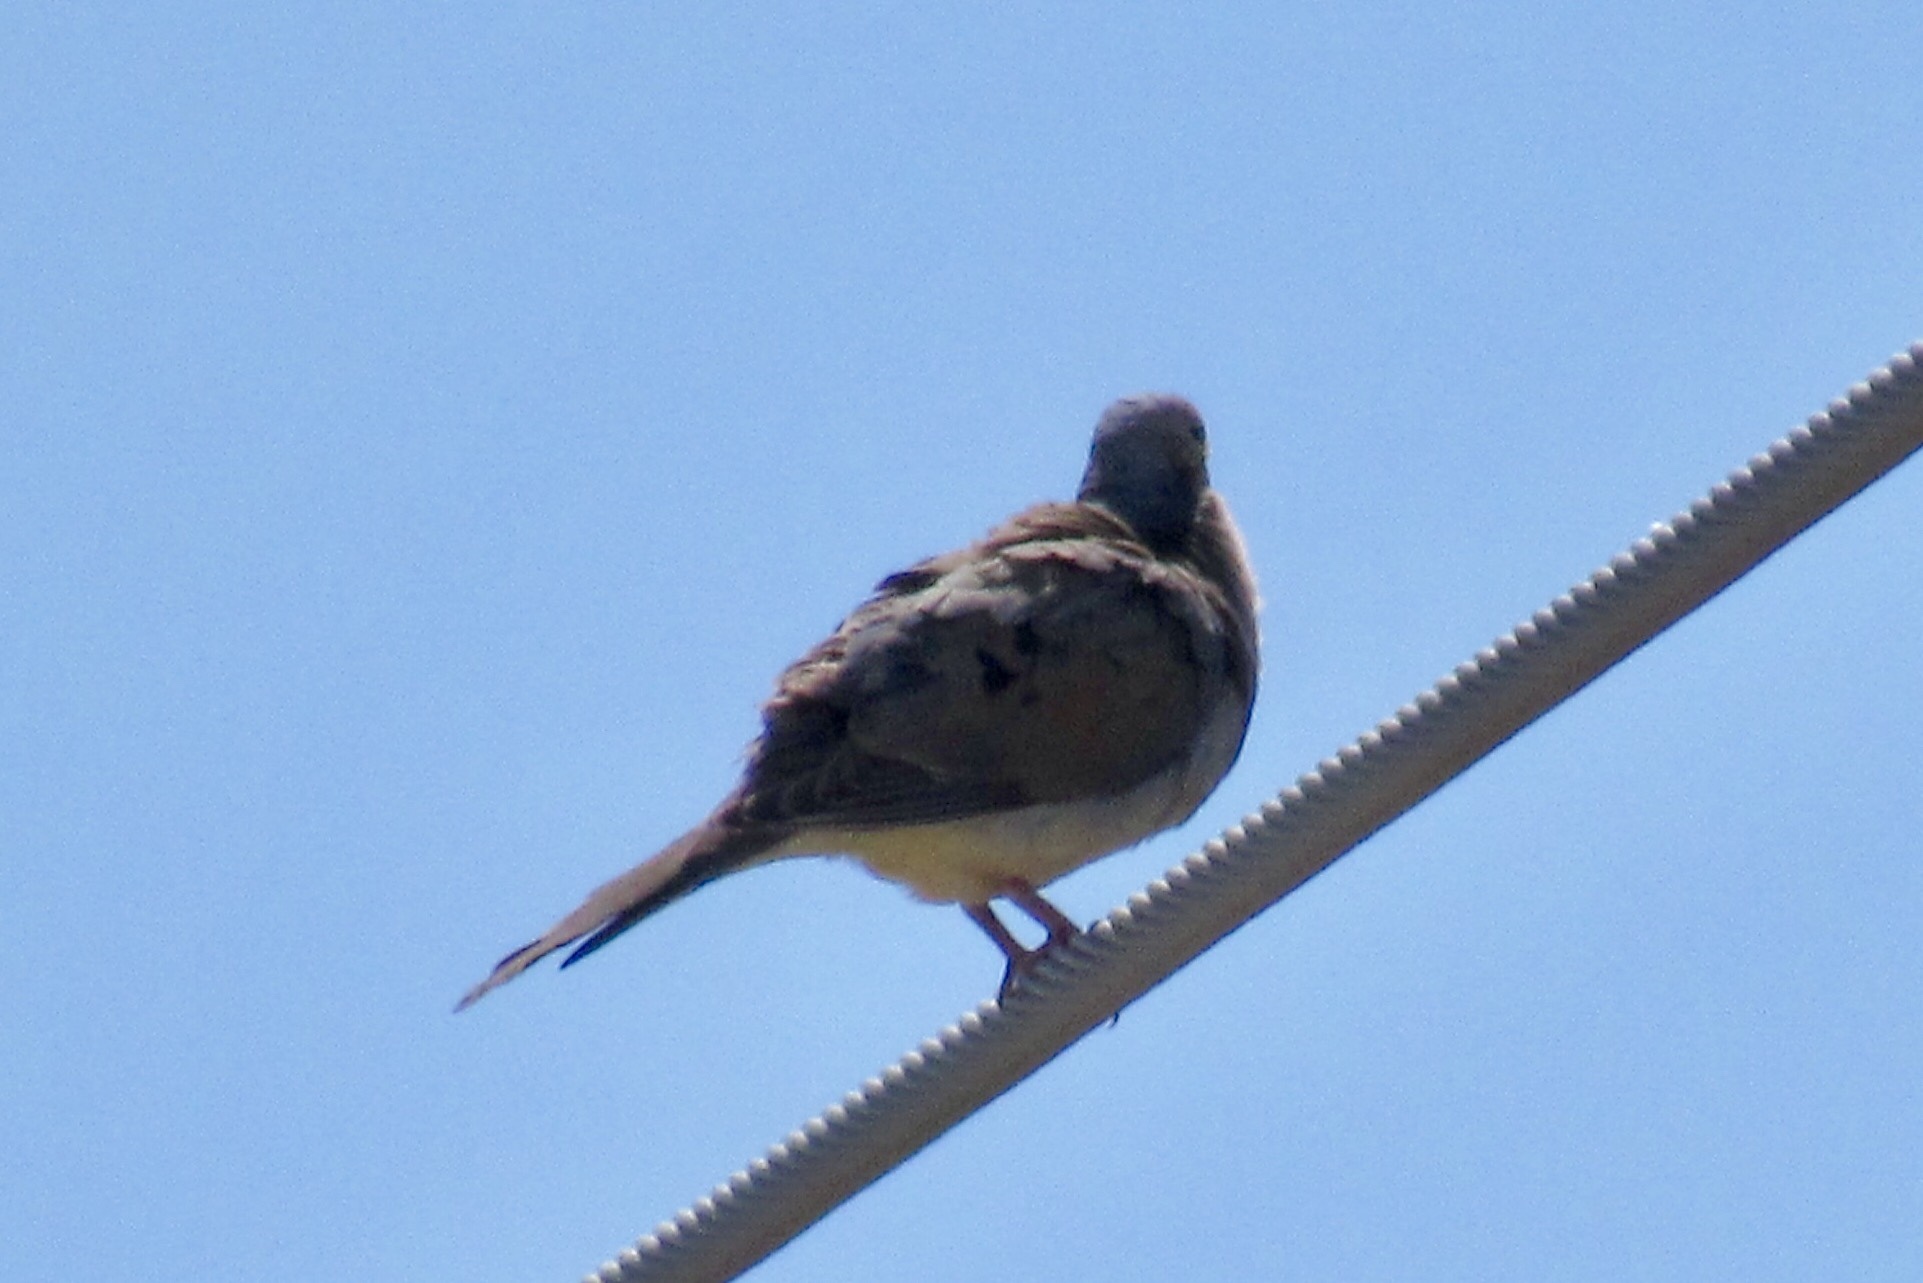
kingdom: Animalia
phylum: Chordata
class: Aves
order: Columbiformes
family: Columbidae
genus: Zenaida
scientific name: Zenaida macroura
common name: Mourning dove
